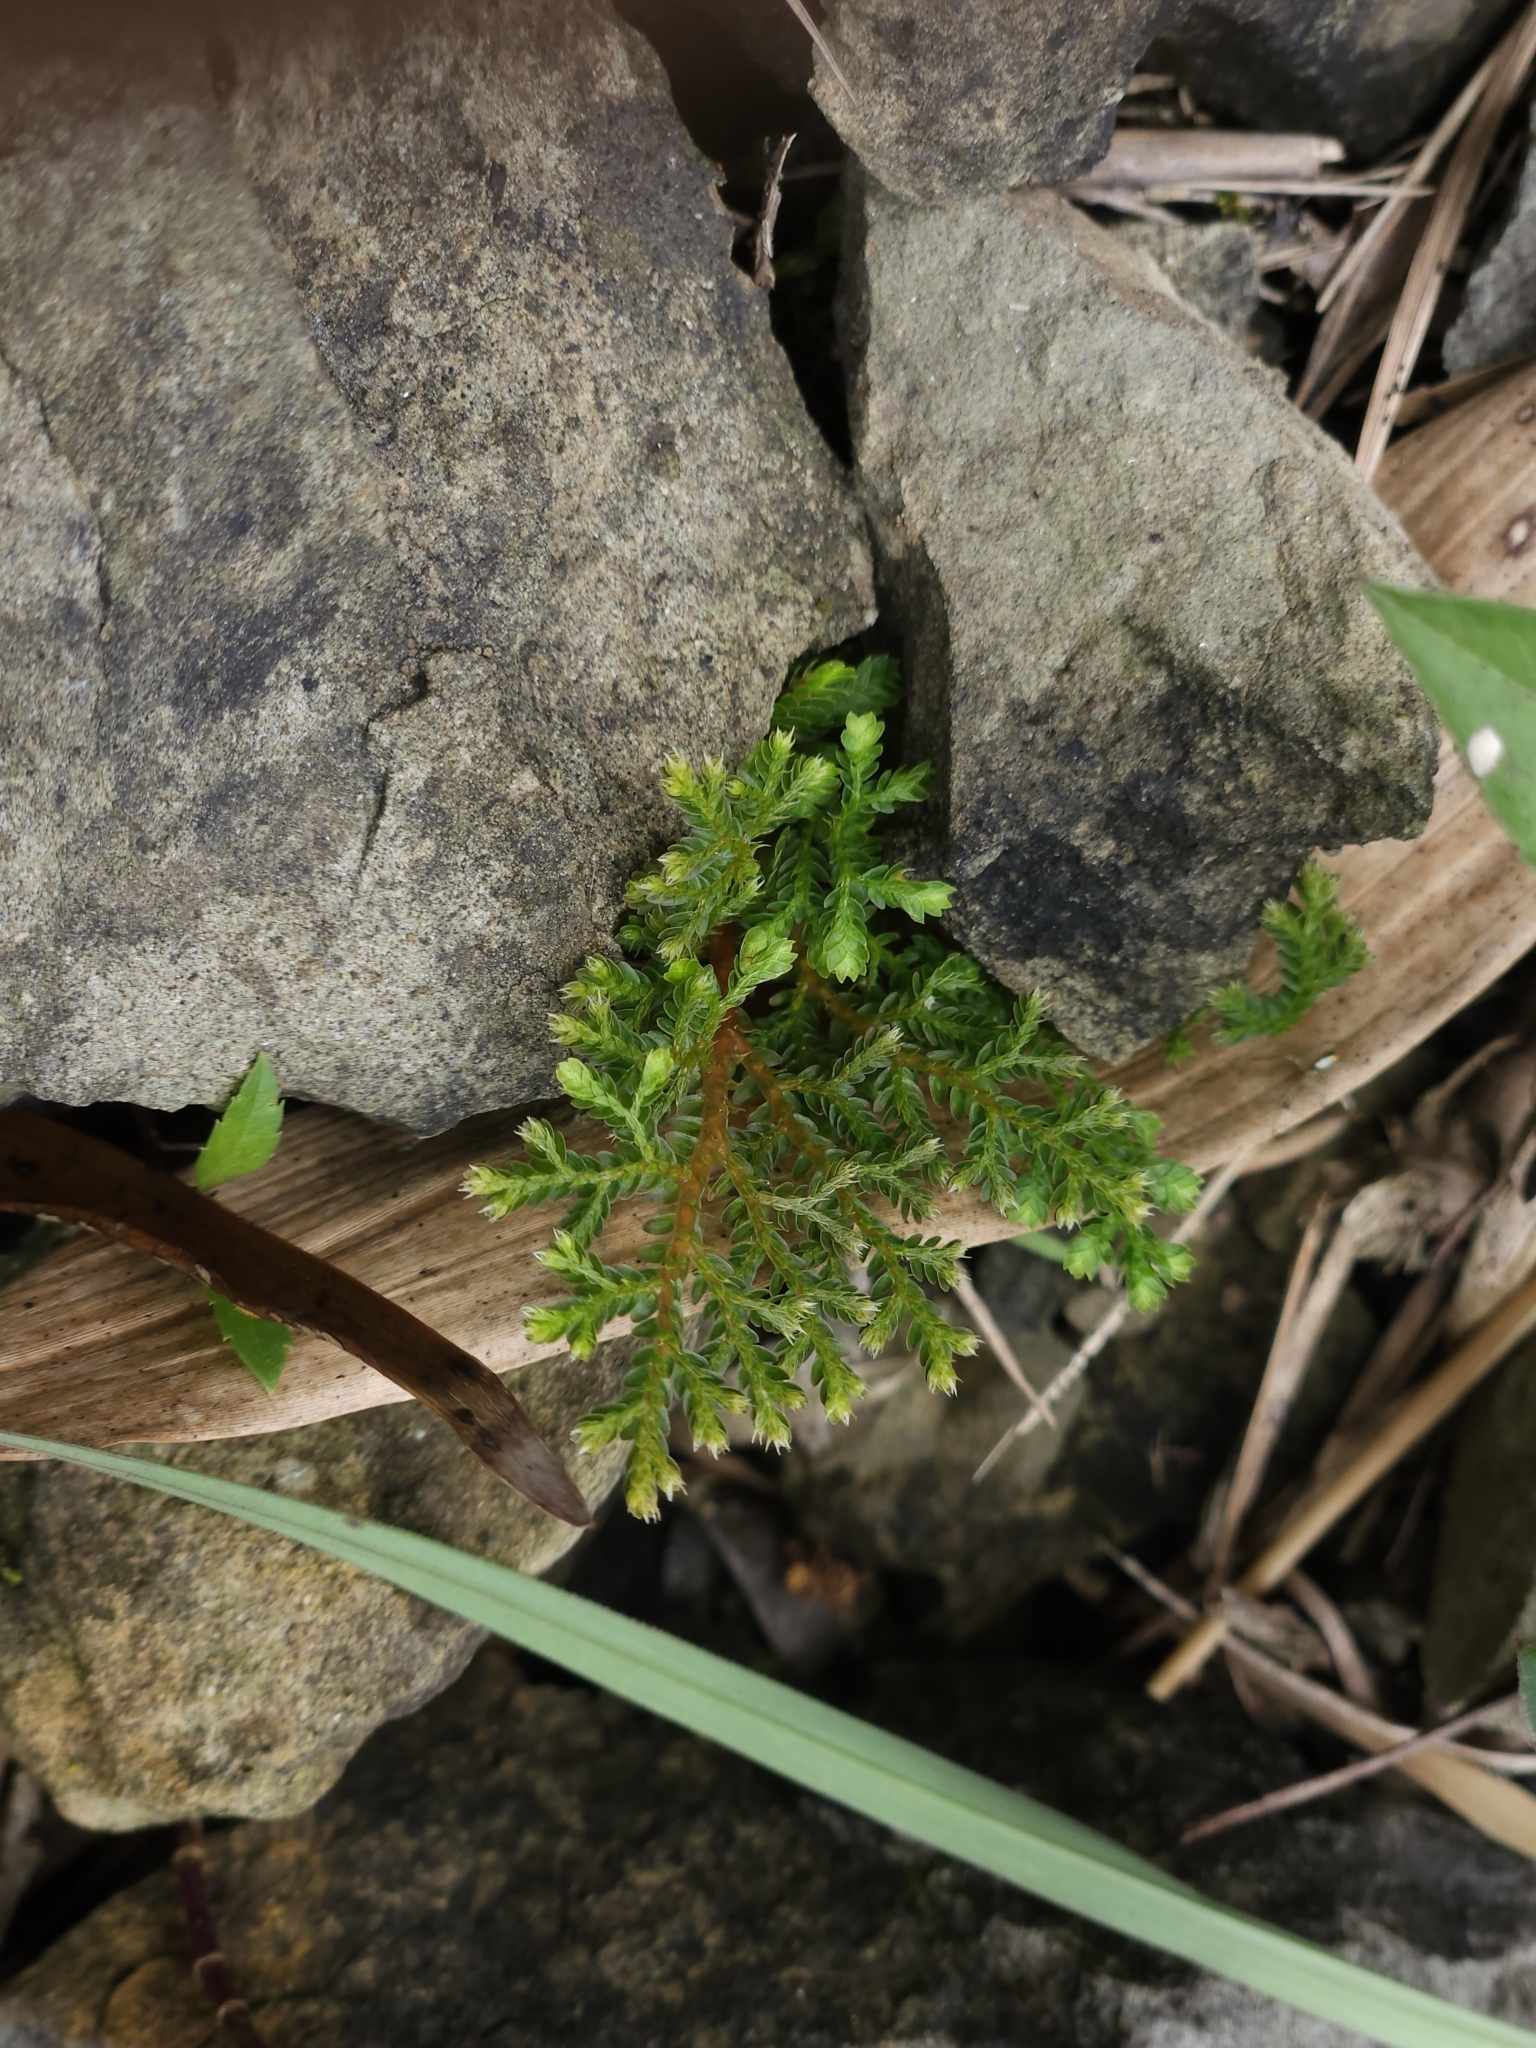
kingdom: Plantae
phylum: Tracheophyta
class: Lycopodiopsida
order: Selaginellales
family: Selaginellaceae
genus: Selaginella
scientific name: Selaginella aristata
